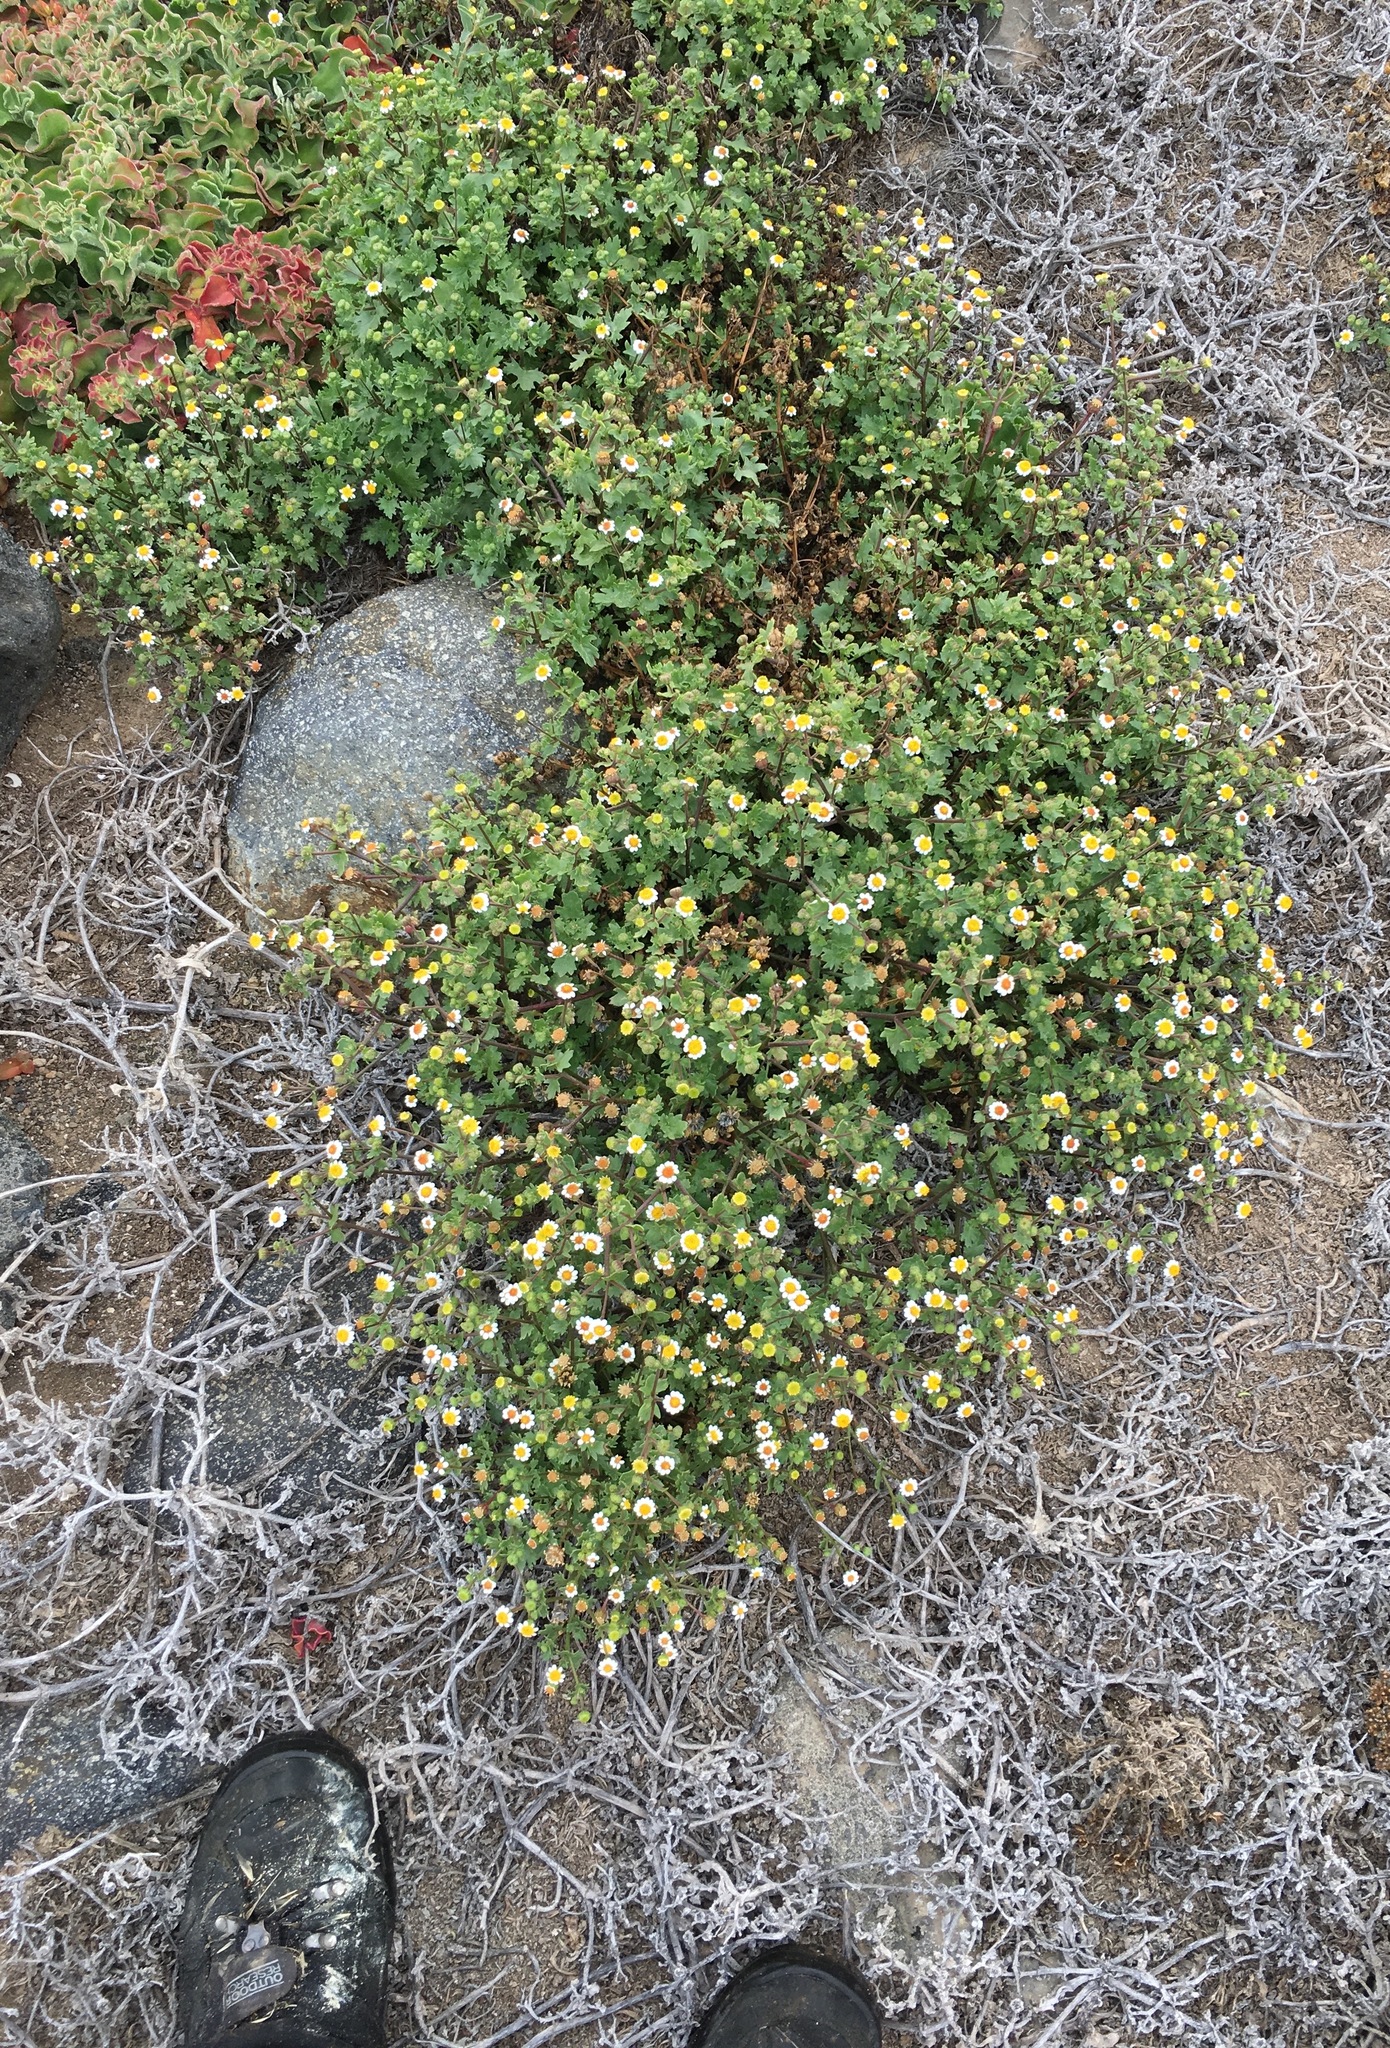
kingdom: Plantae
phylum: Tracheophyta
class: Magnoliopsida
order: Asterales
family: Asteraceae
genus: Laphamia
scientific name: Laphamia emoryi
